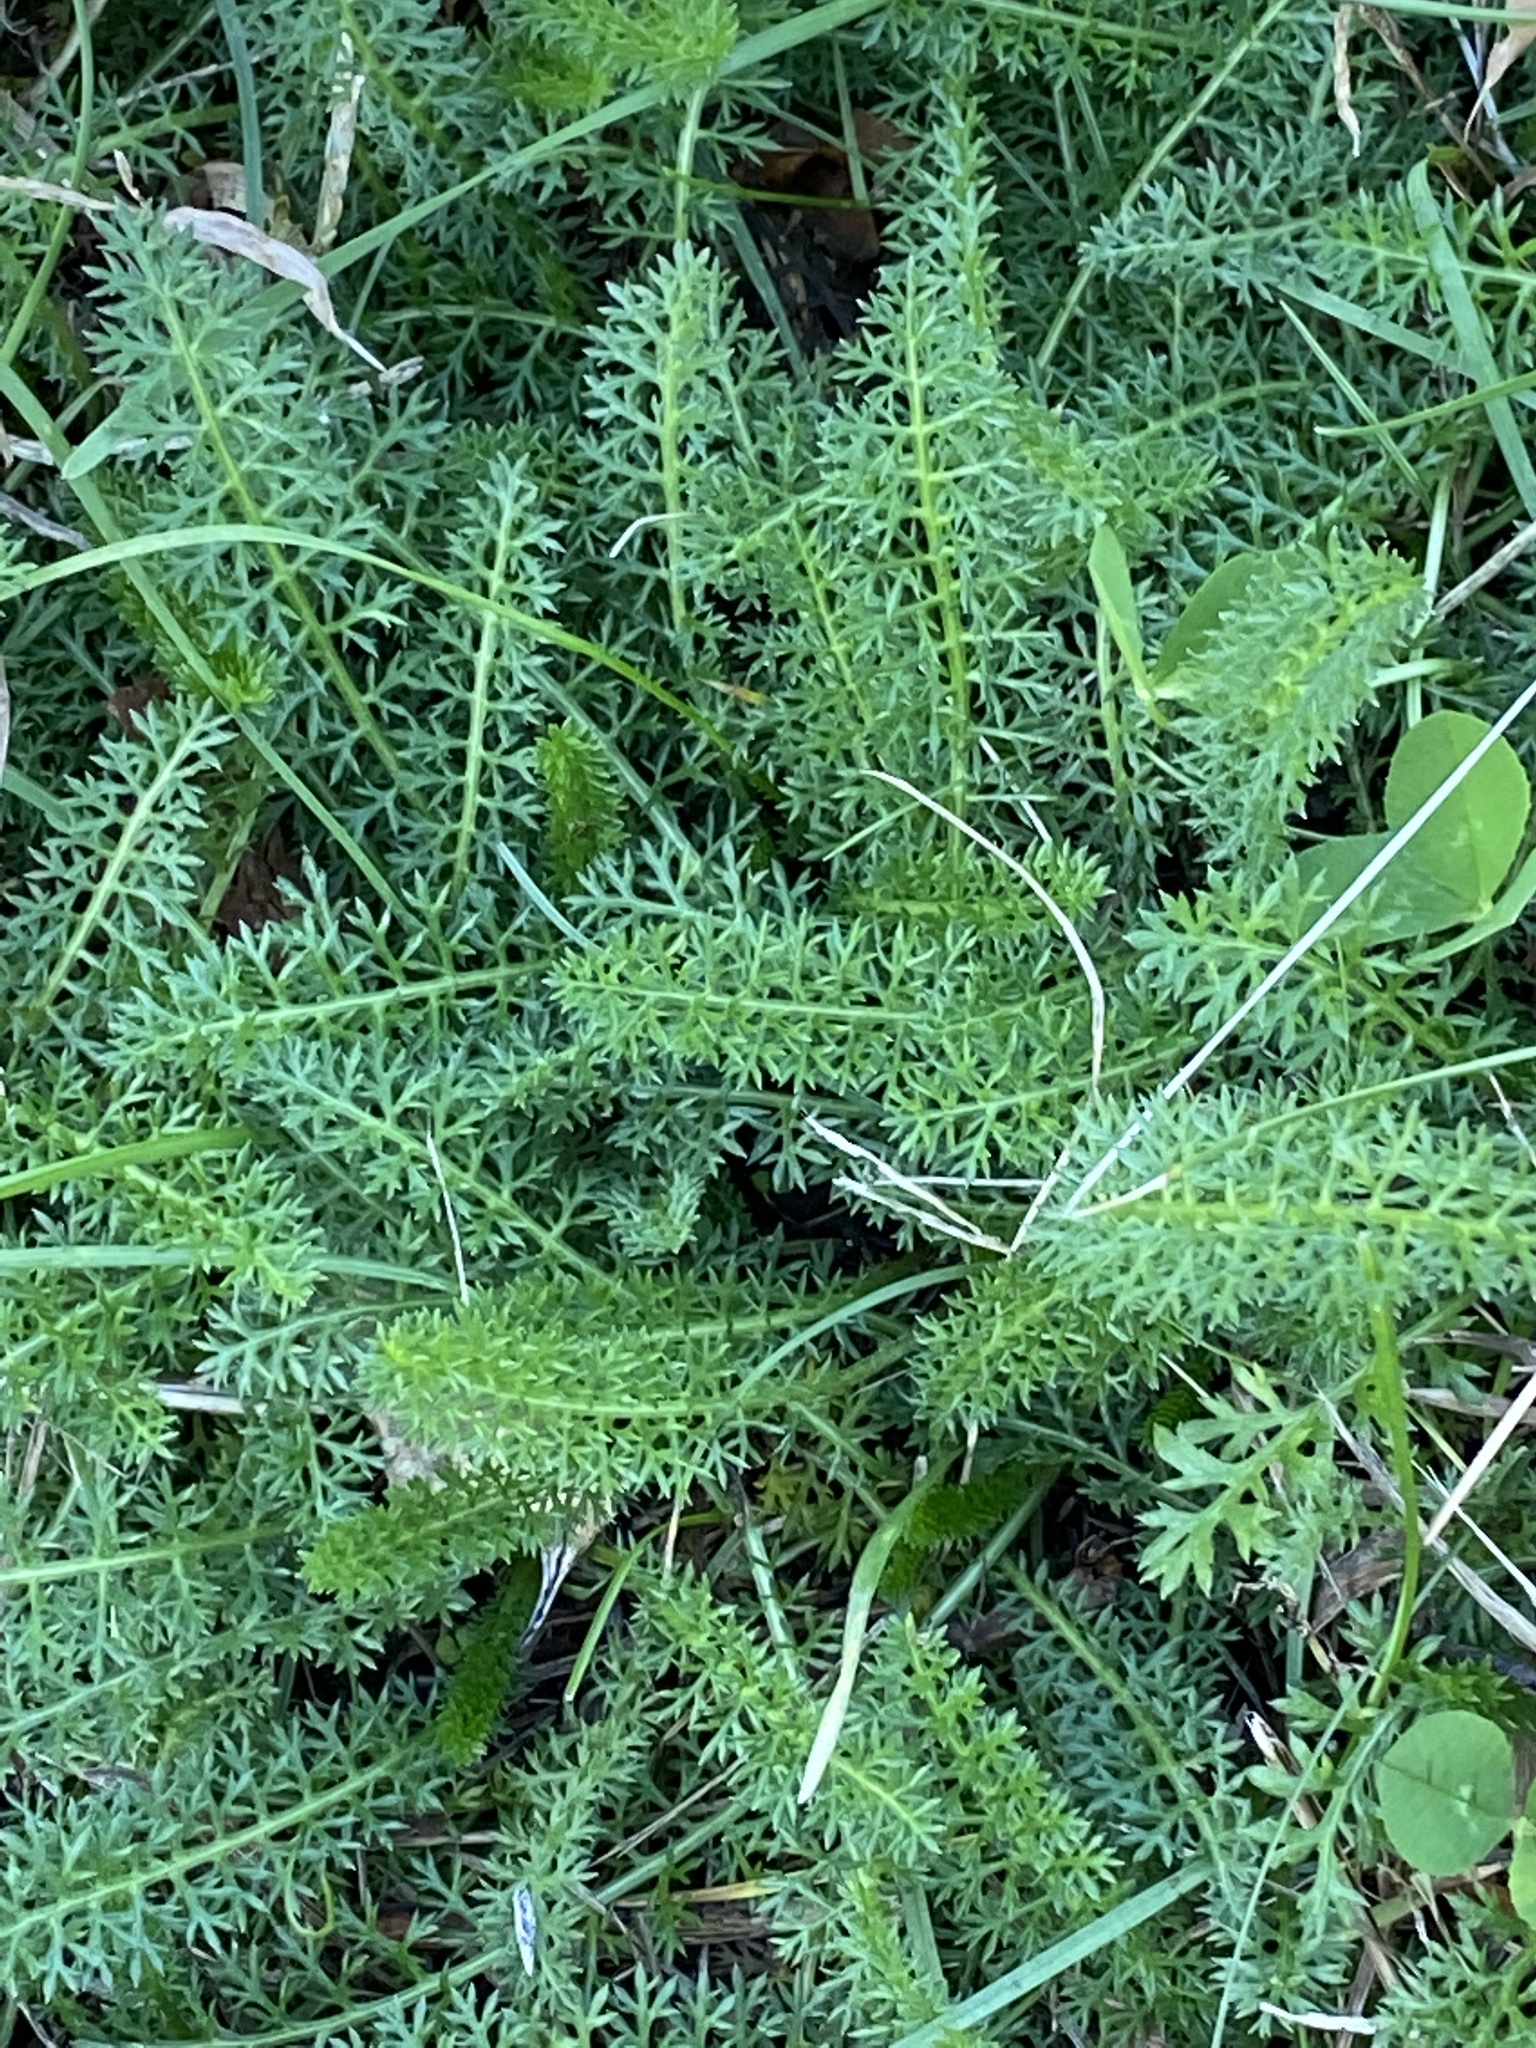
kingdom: Plantae
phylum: Tracheophyta
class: Magnoliopsida
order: Asterales
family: Asteraceae
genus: Achillea
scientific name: Achillea millefolium
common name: Yarrow
